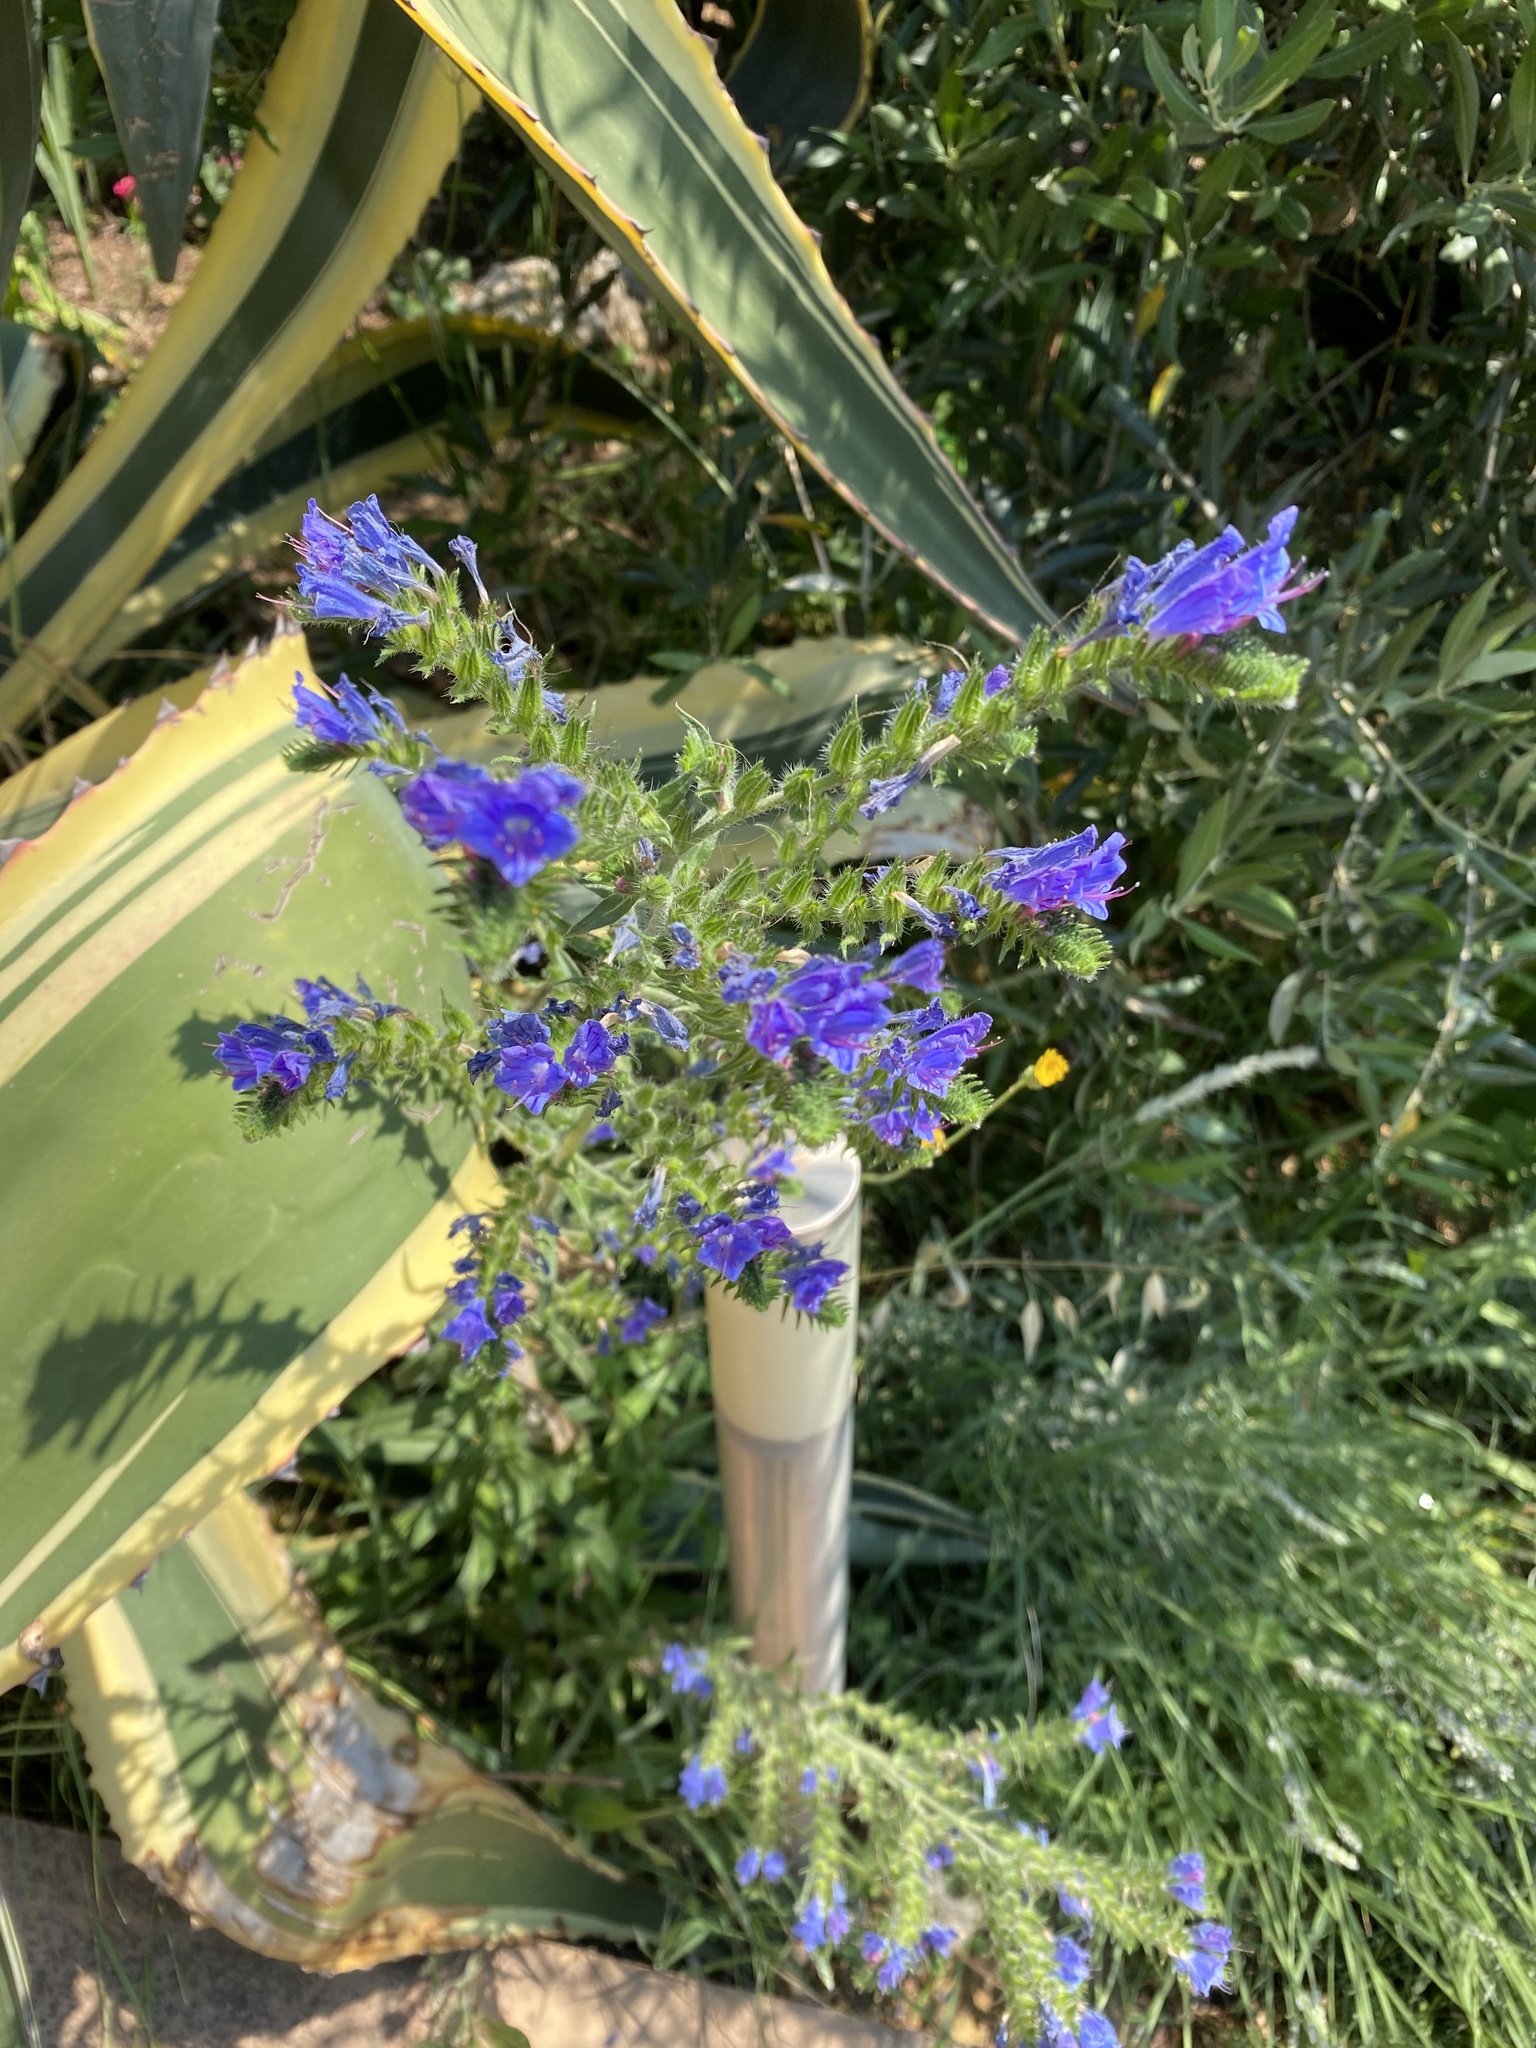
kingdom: Plantae
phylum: Tracheophyta
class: Magnoliopsida
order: Boraginales
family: Boraginaceae
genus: Echium
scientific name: Echium vulgare
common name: Common viper's bugloss
